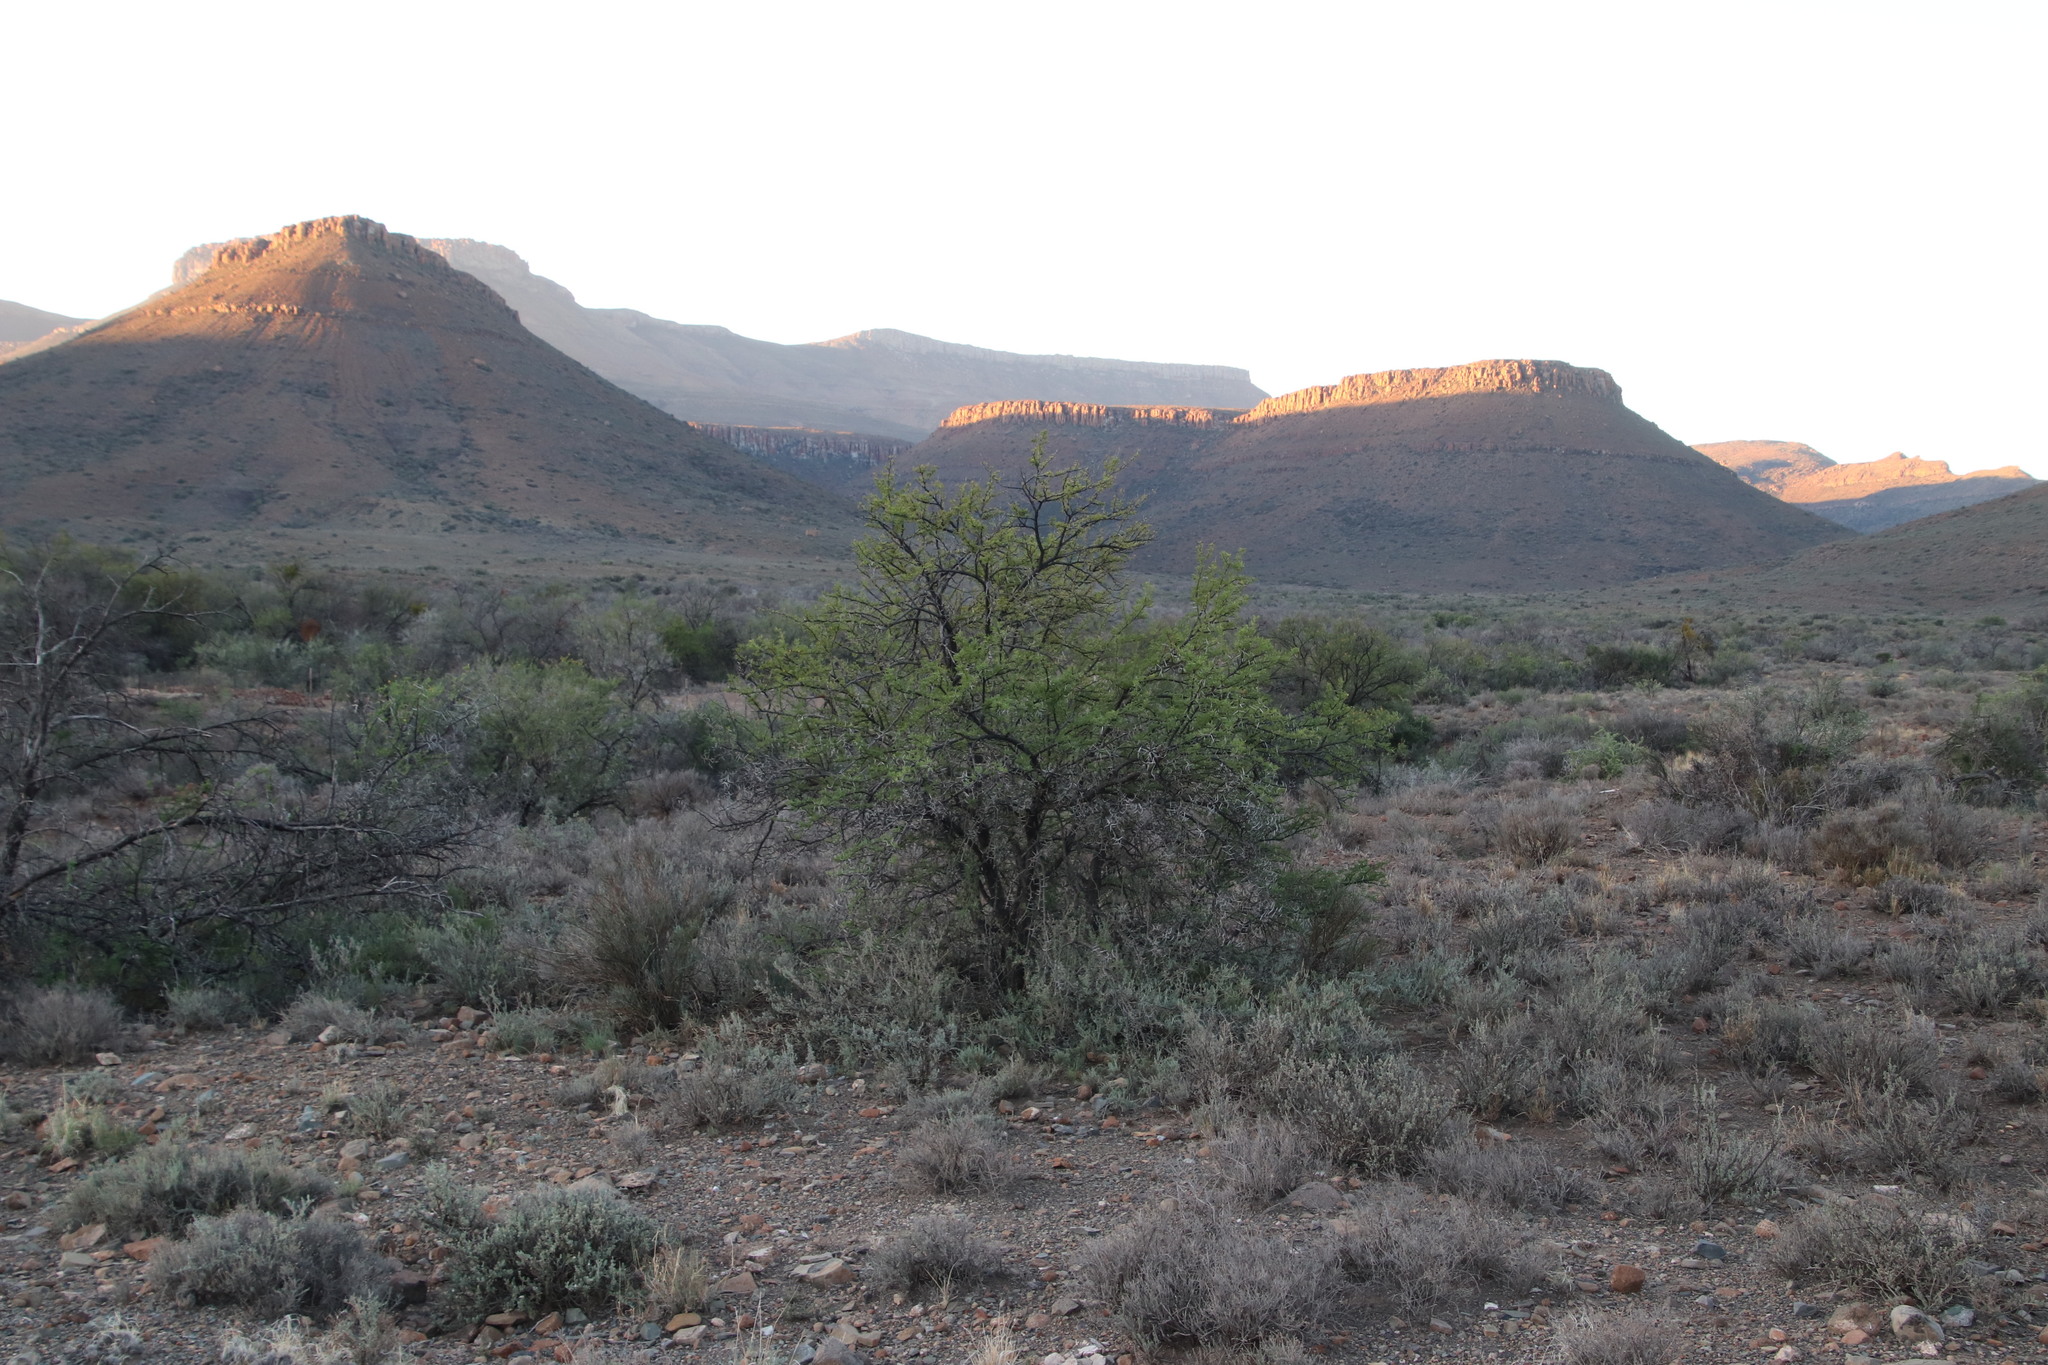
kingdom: Plantae
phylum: Tracheophyta
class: Magnoliopsida
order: Fabales
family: Fabaceae
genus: Vachellia
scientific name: Vachellia karroo
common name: Sweet thorn
